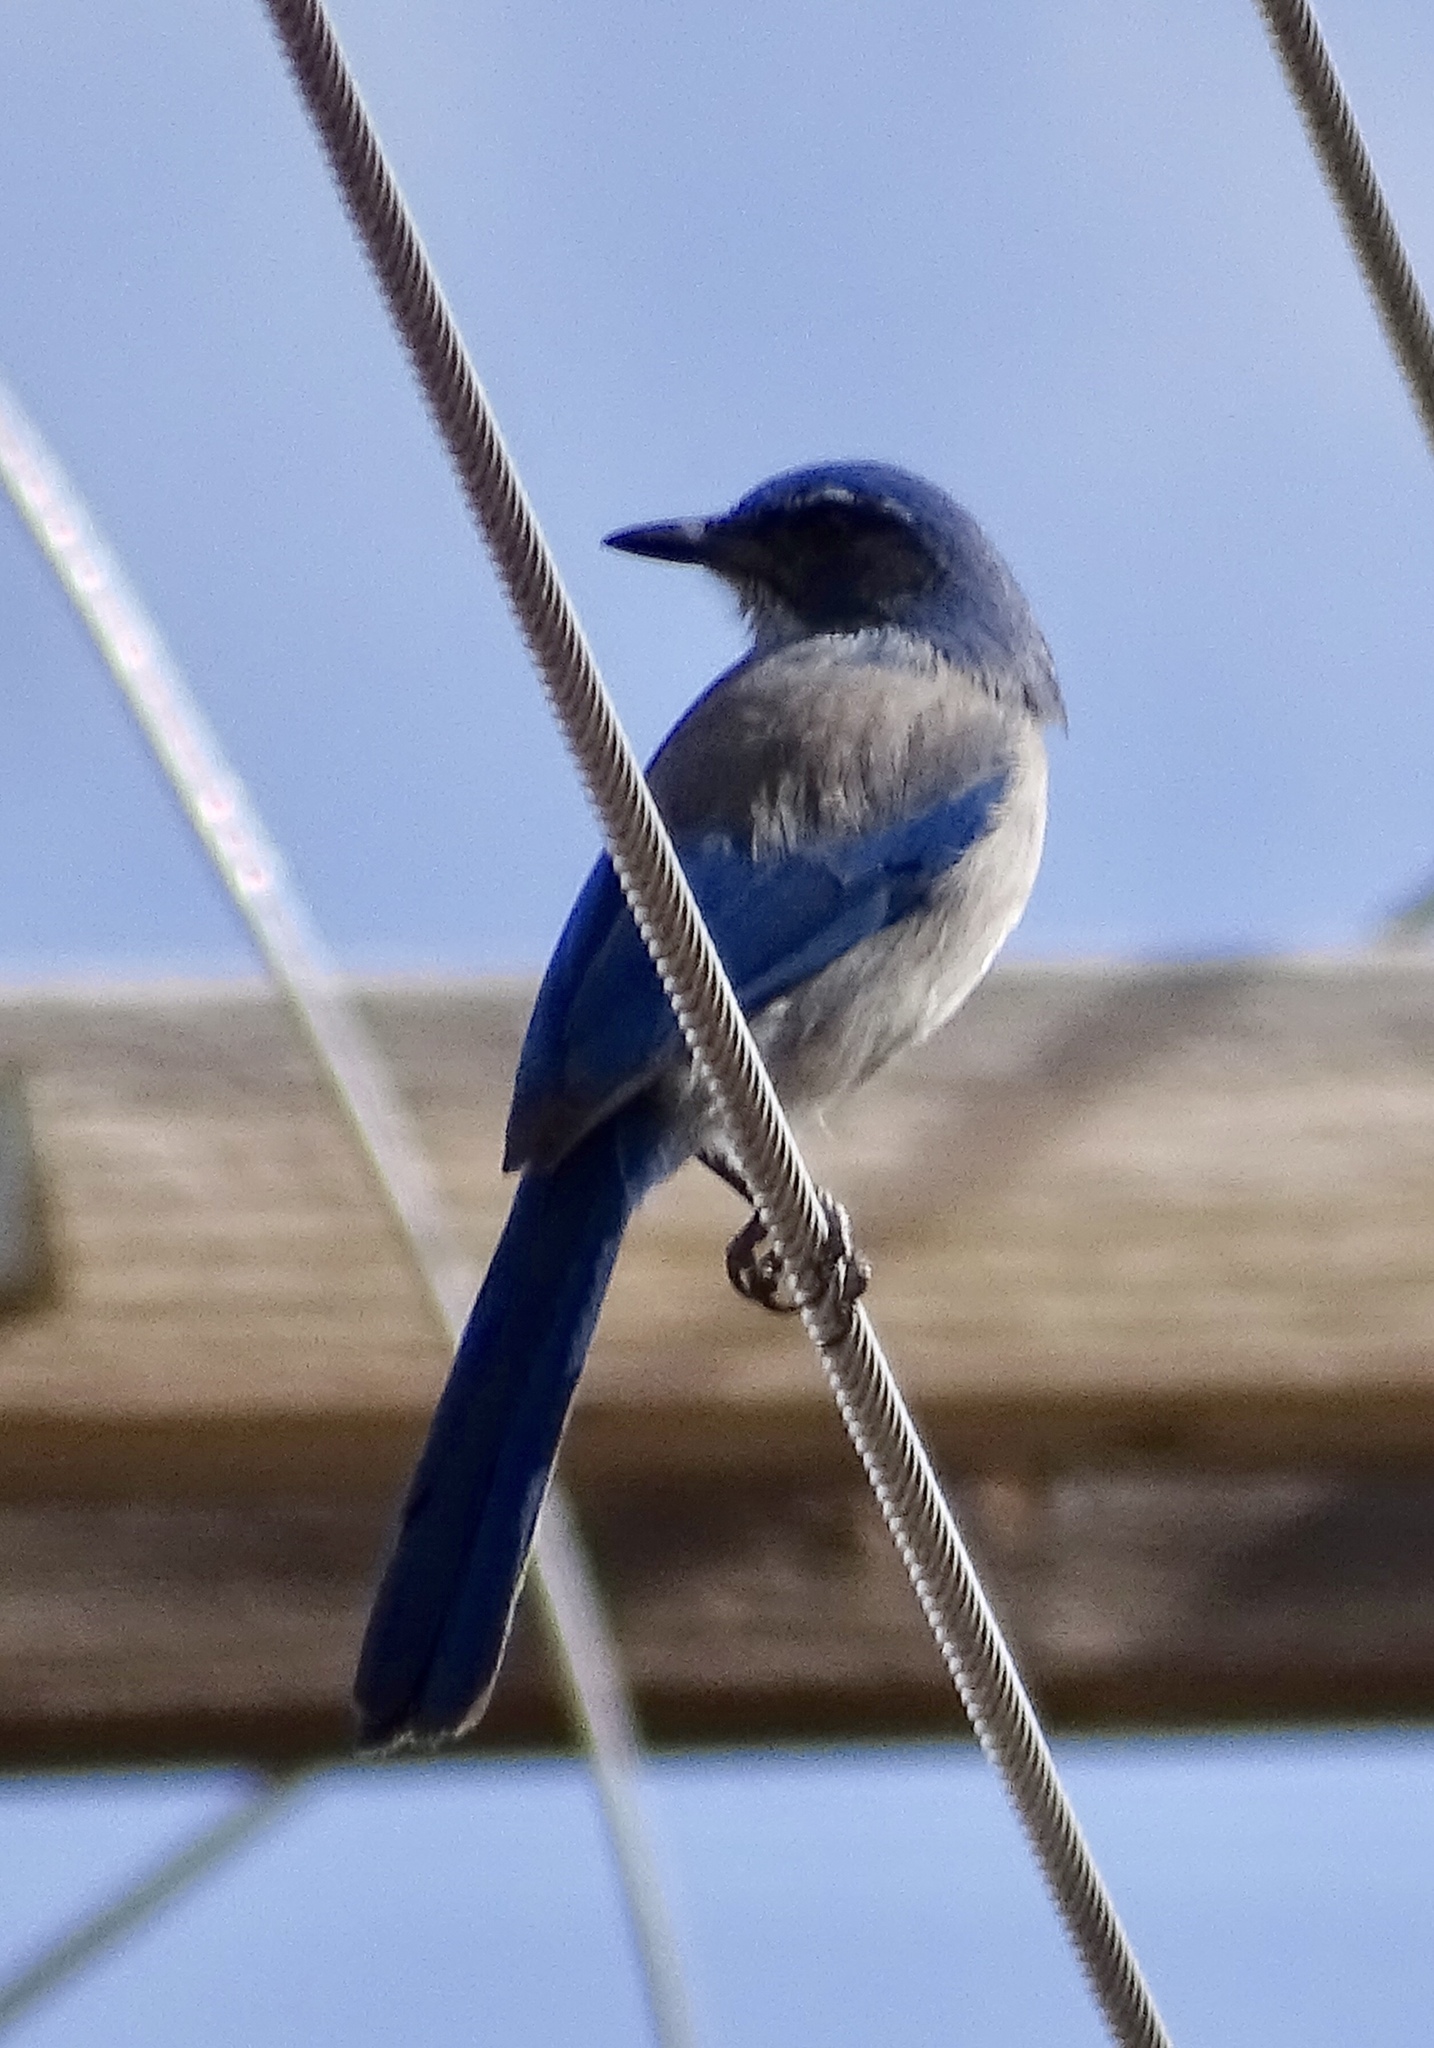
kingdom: Animalia
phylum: Chordata
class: Aves
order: Passeriformes
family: Corvidae
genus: Aphelocoma
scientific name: Aphelocoma woodhouseii
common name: Woodhouse's scrub-jay
